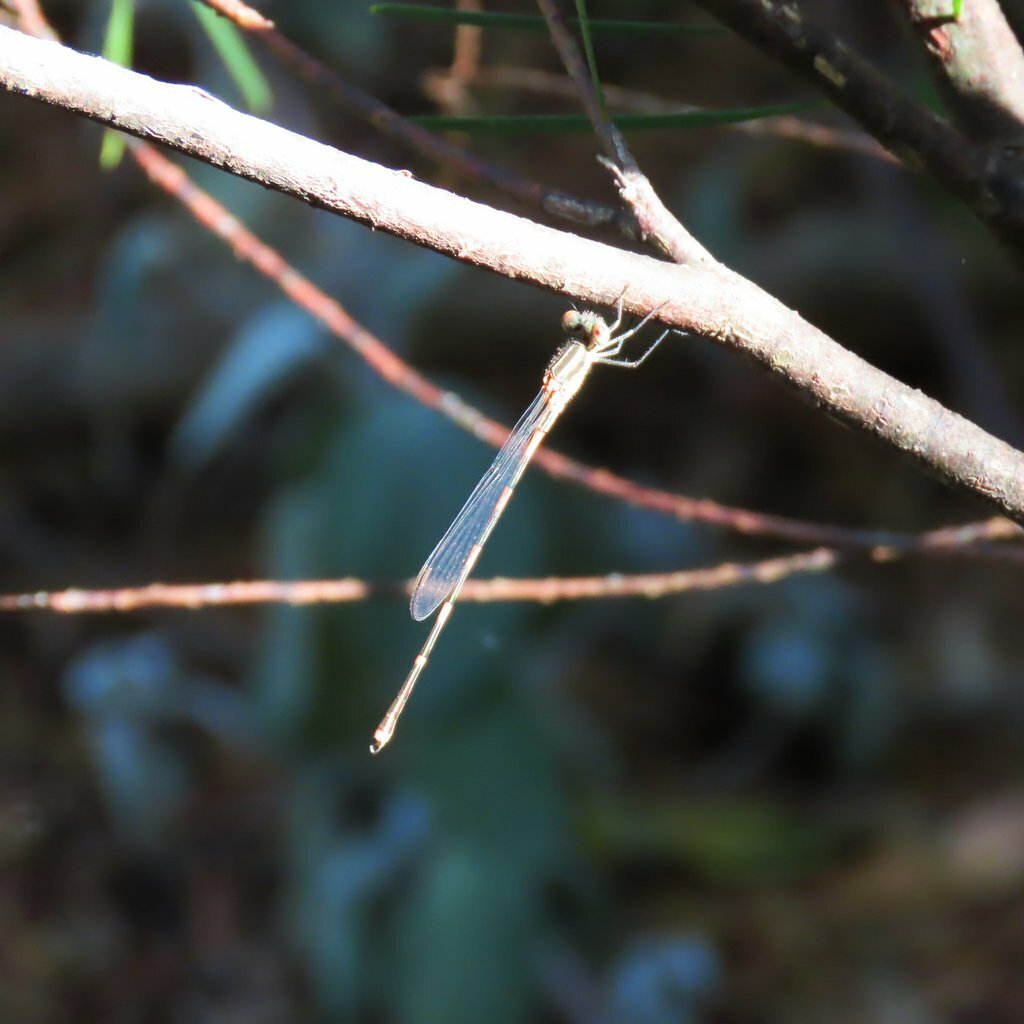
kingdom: Animalia
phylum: Arthropoda
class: Insecta
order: Odonata
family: Lestidae
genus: Austrolestes
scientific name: Austrolestes leda
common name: Wandering ringtail
